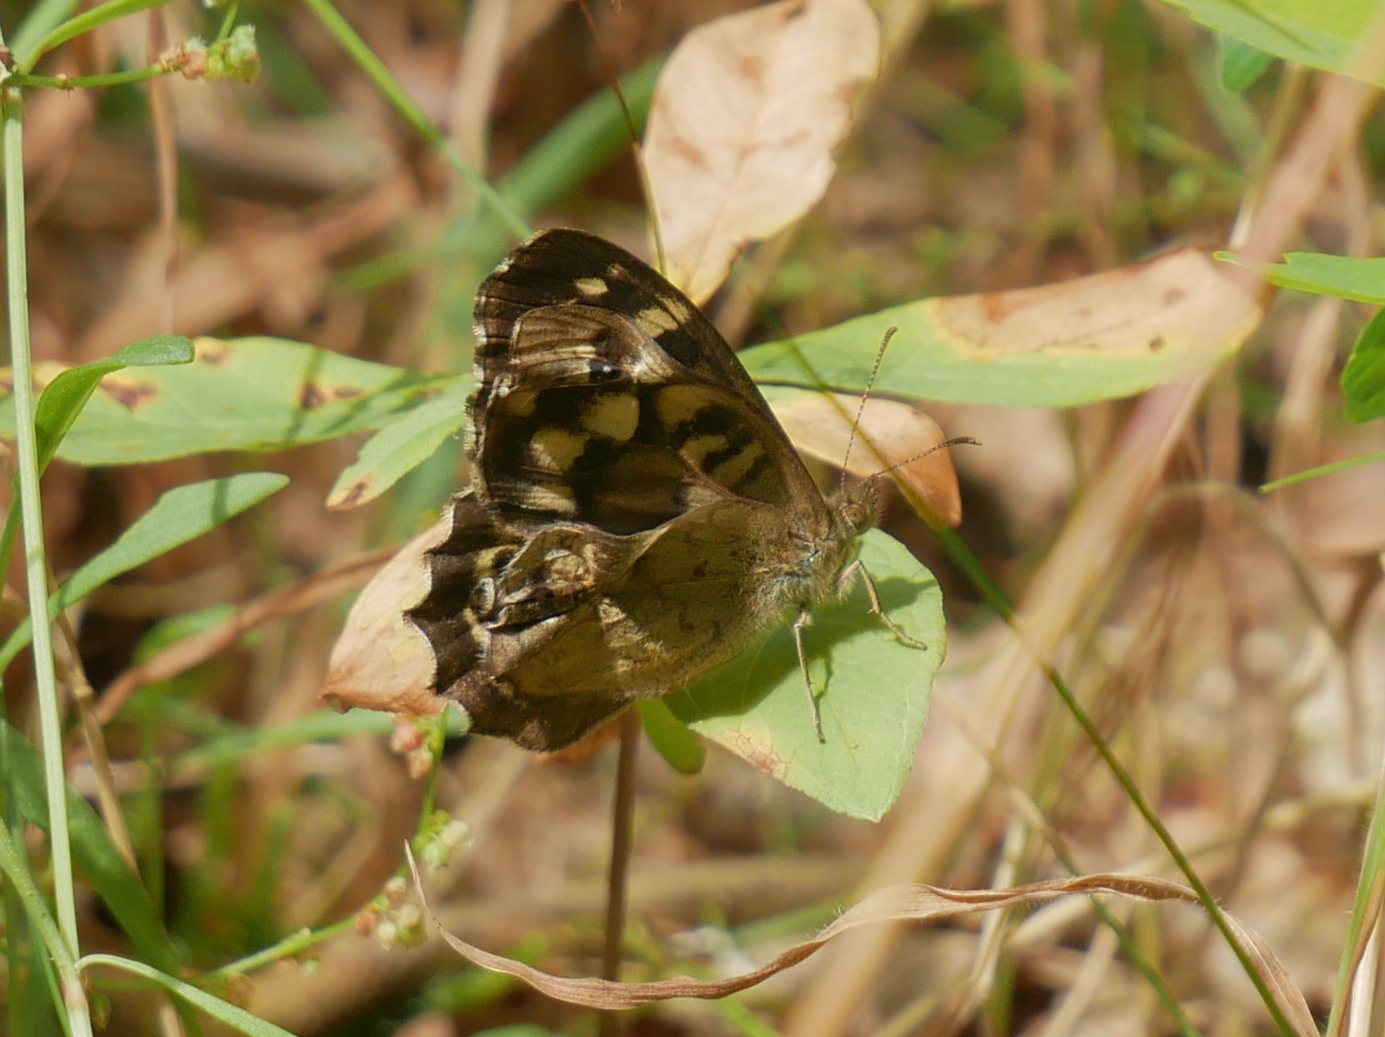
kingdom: Animalia
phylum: Arthropoda
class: Insecta
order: Lepidoptera
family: Nymphalidae
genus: Pararge
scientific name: Pararge aegeria
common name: Speckled wood
